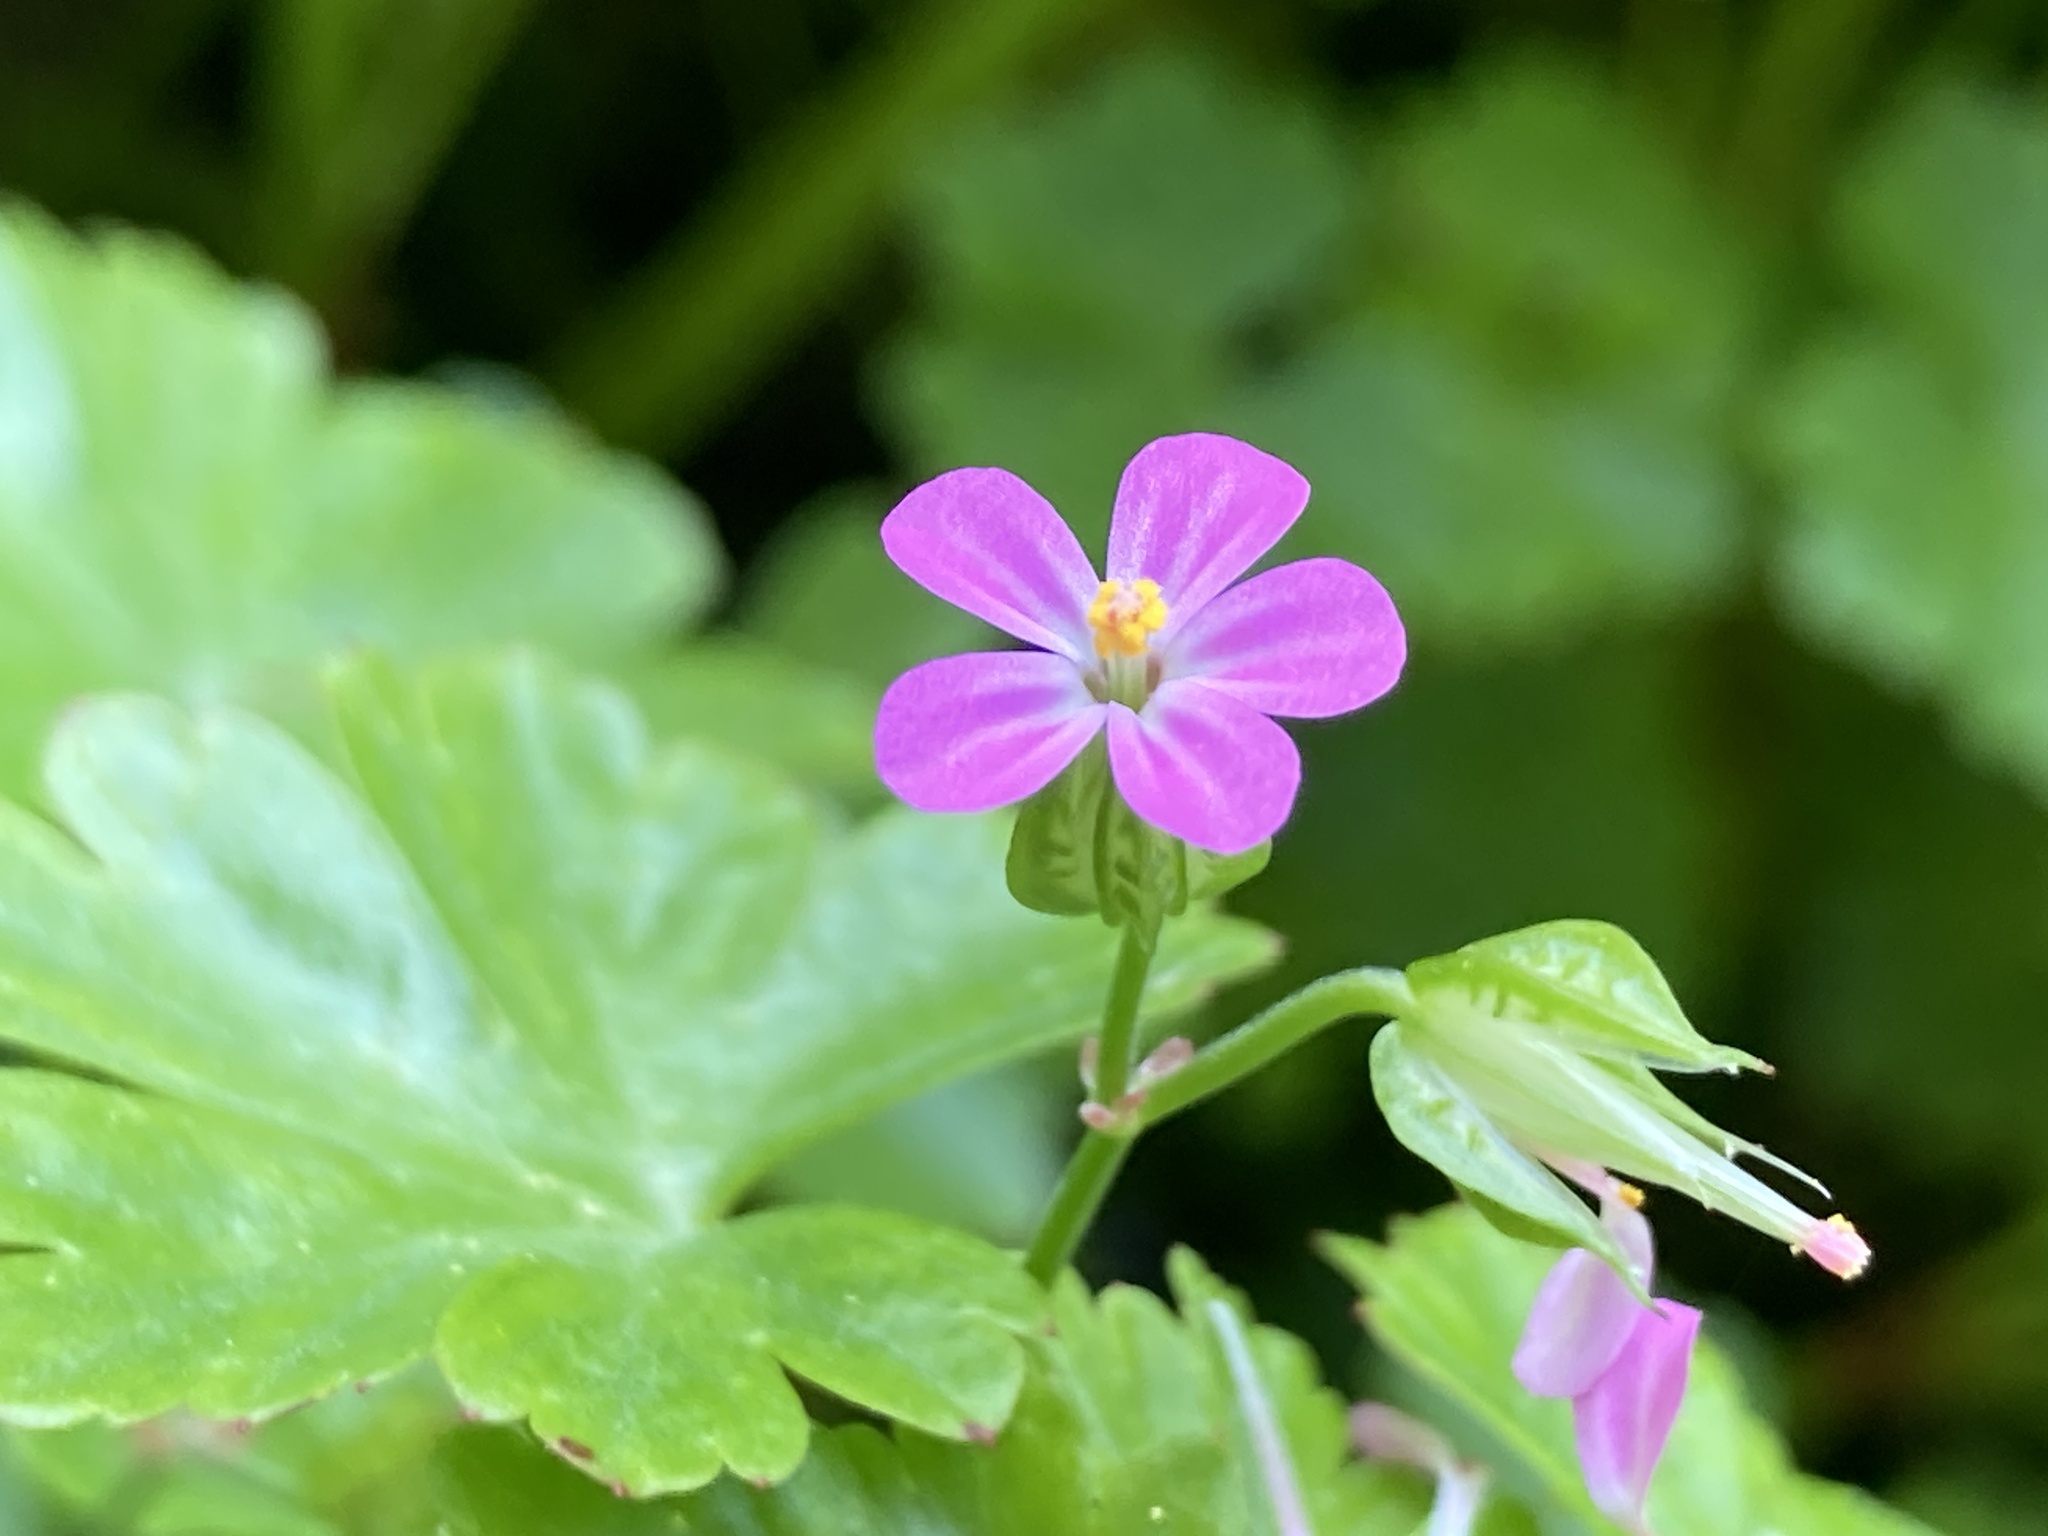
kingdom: Plantae
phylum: Tracheophyta
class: Magnoliopsida
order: Geraniales
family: Geraniaceae
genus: Geranium
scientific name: Geranium lucidum
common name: Shining crane's-bill
